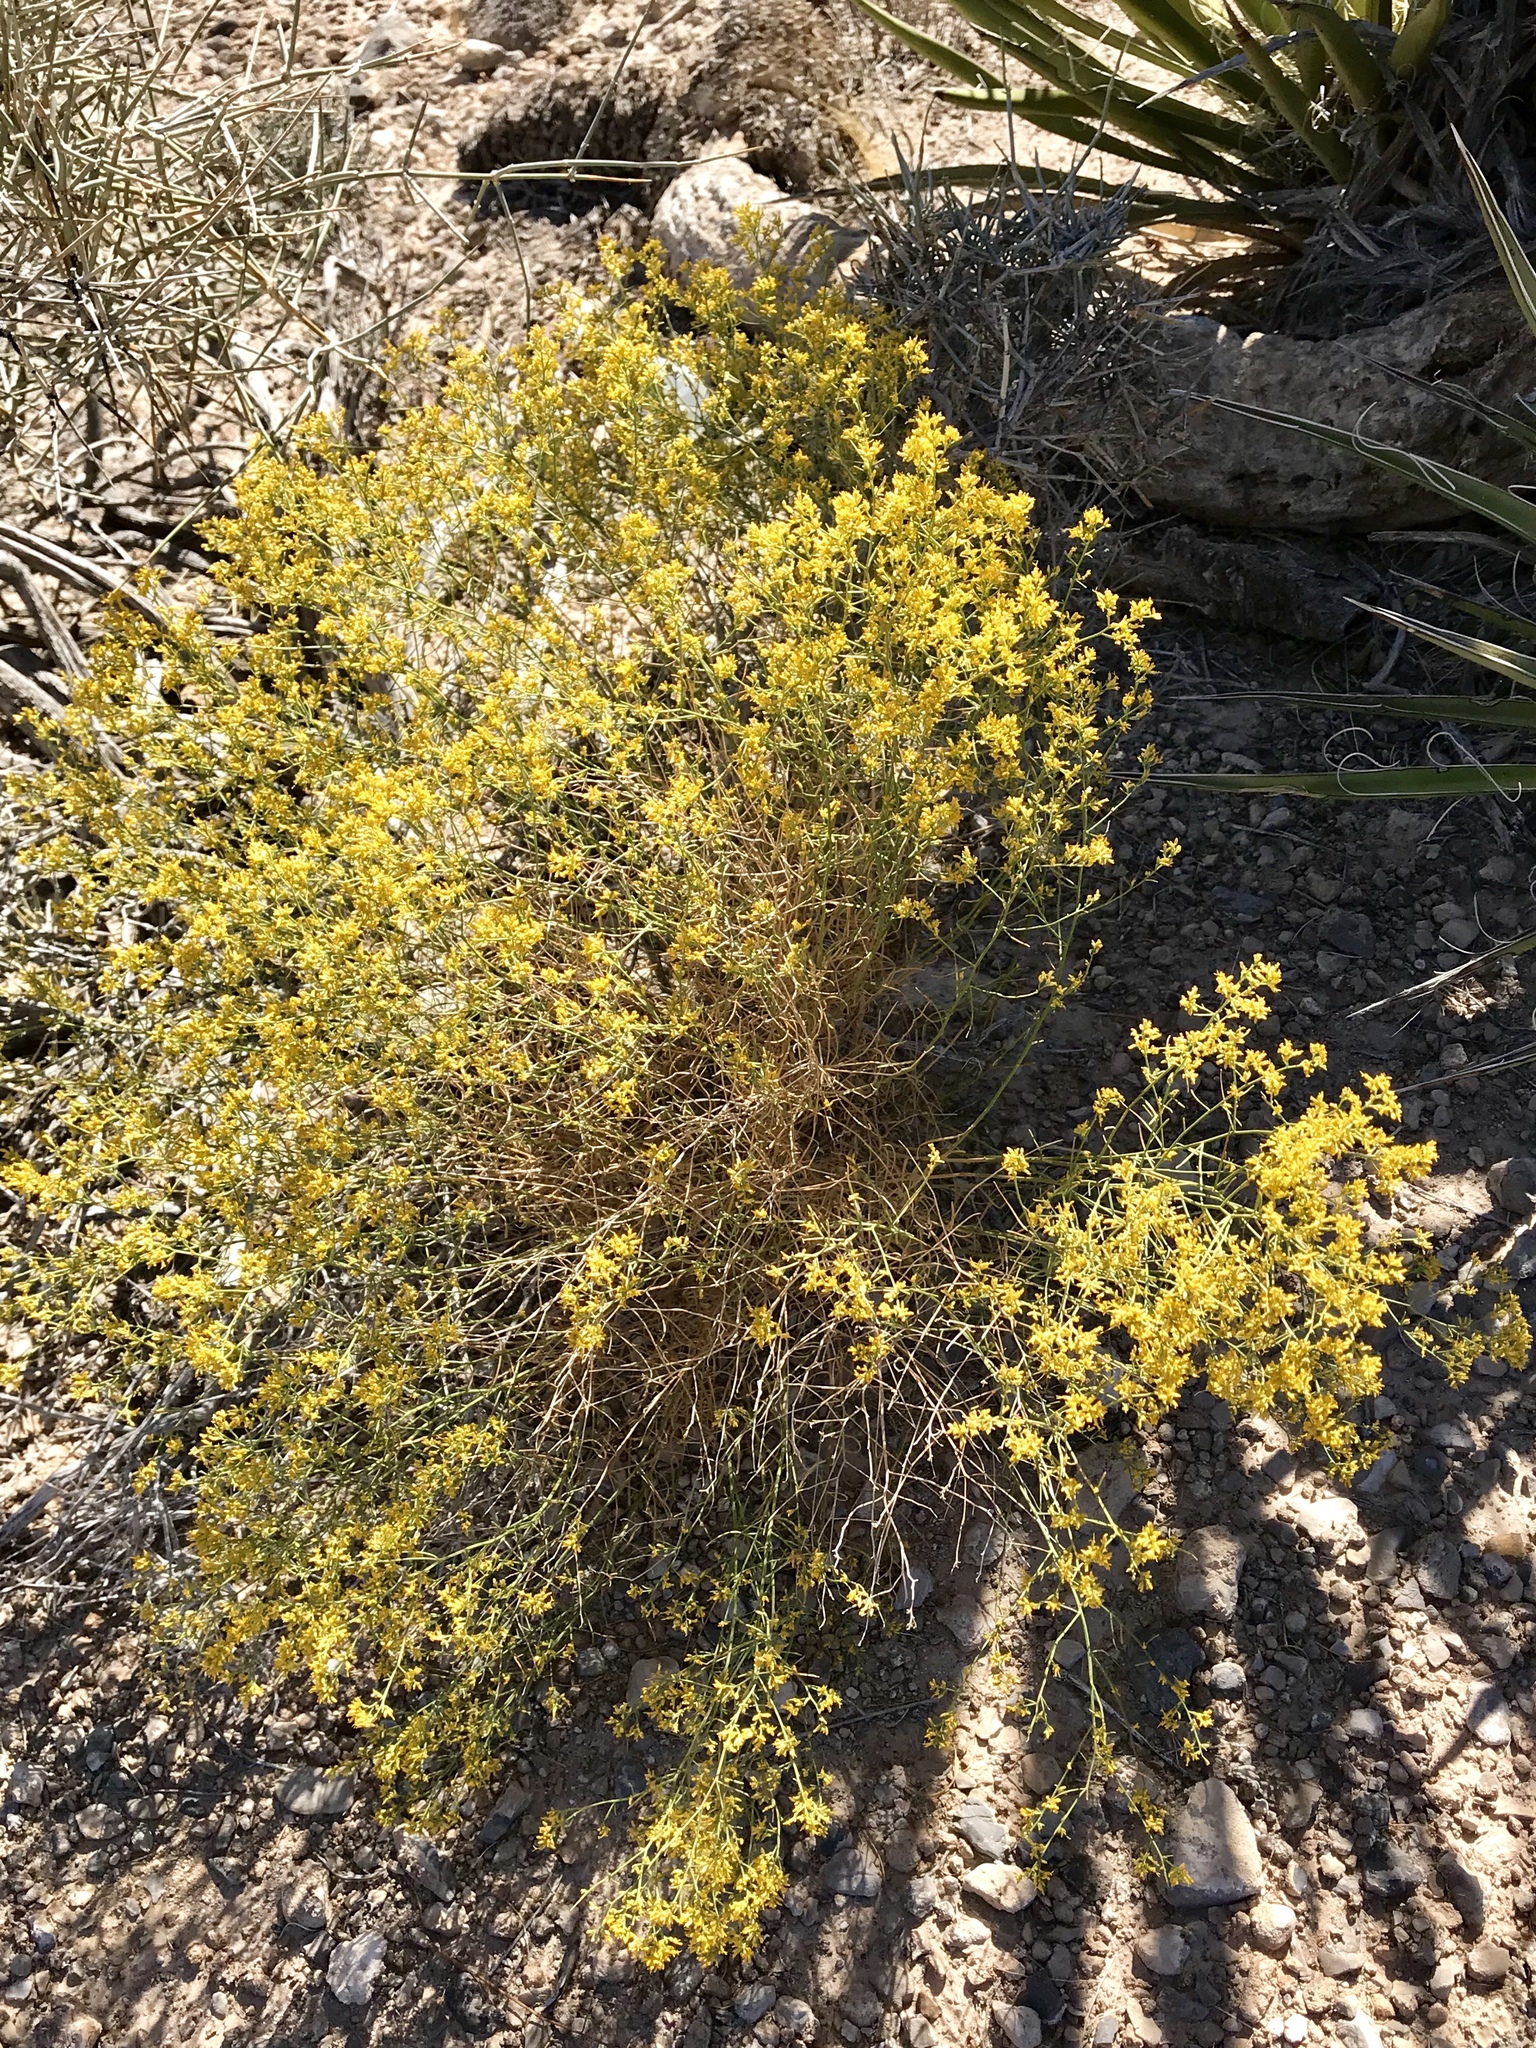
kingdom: Plantae
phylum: Tracheophyta
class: Magnoliopsida
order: Asterales
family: Asteraceae
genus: Gutierrezia
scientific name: Gutierrezia sarothrae
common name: Broom snakeweed
